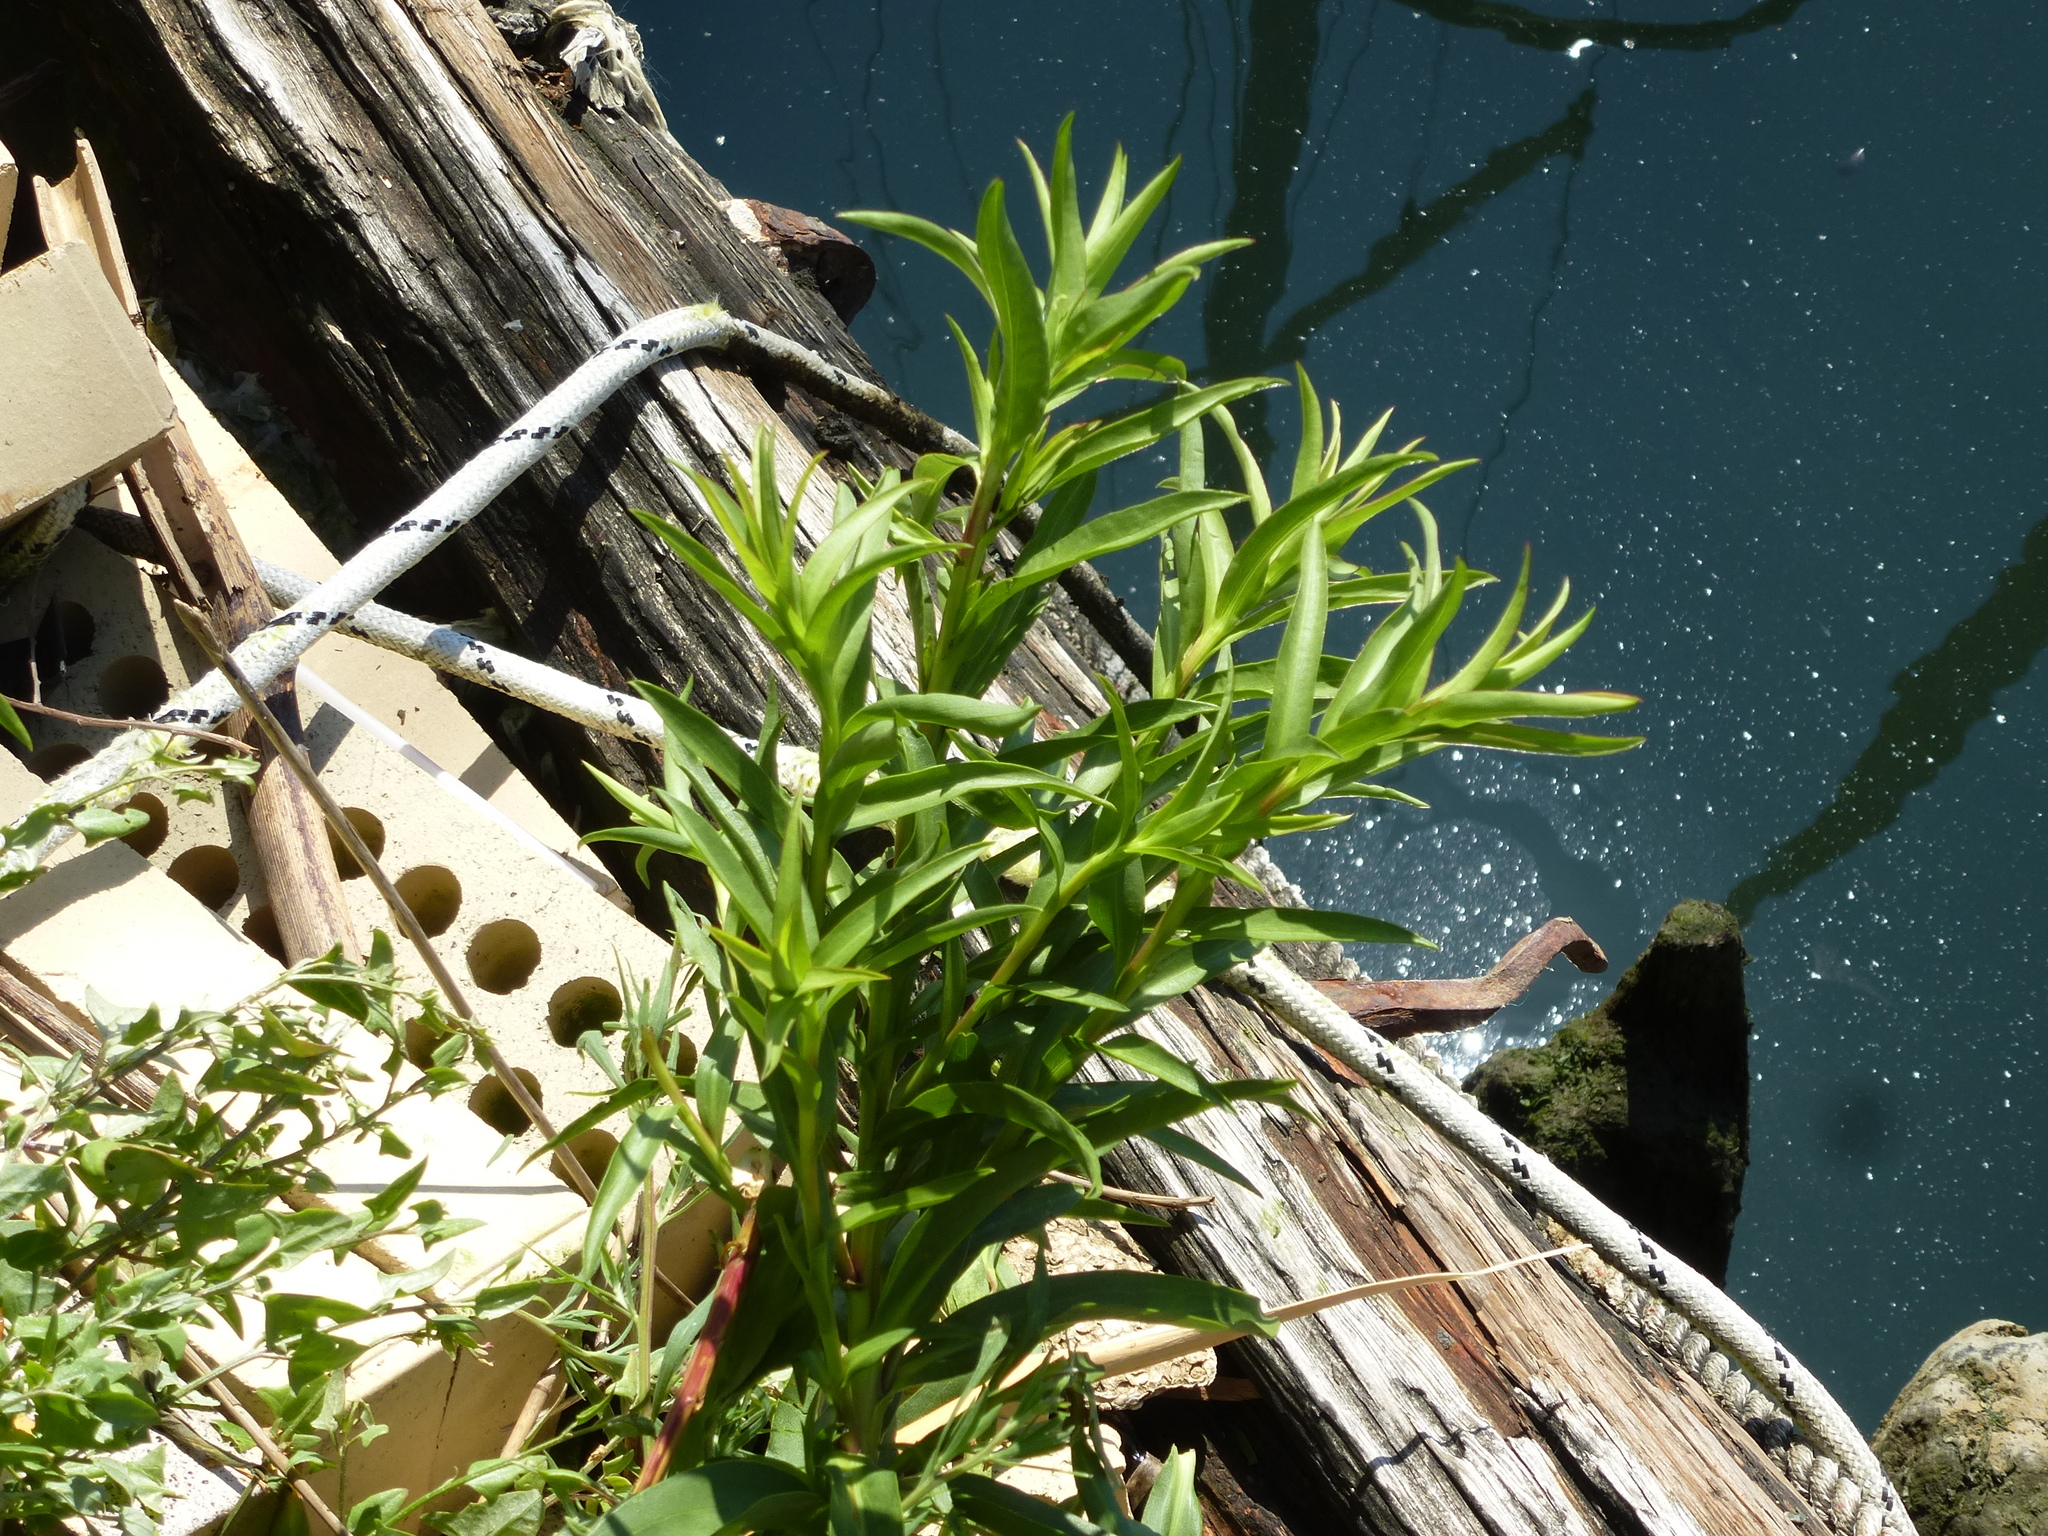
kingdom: Plantae
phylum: Tracheophyta
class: Magnoliopsida
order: Asterales
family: Asteraceae
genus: Solidago
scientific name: Solidago sempervirens
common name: Salt-marsh goldenrod
